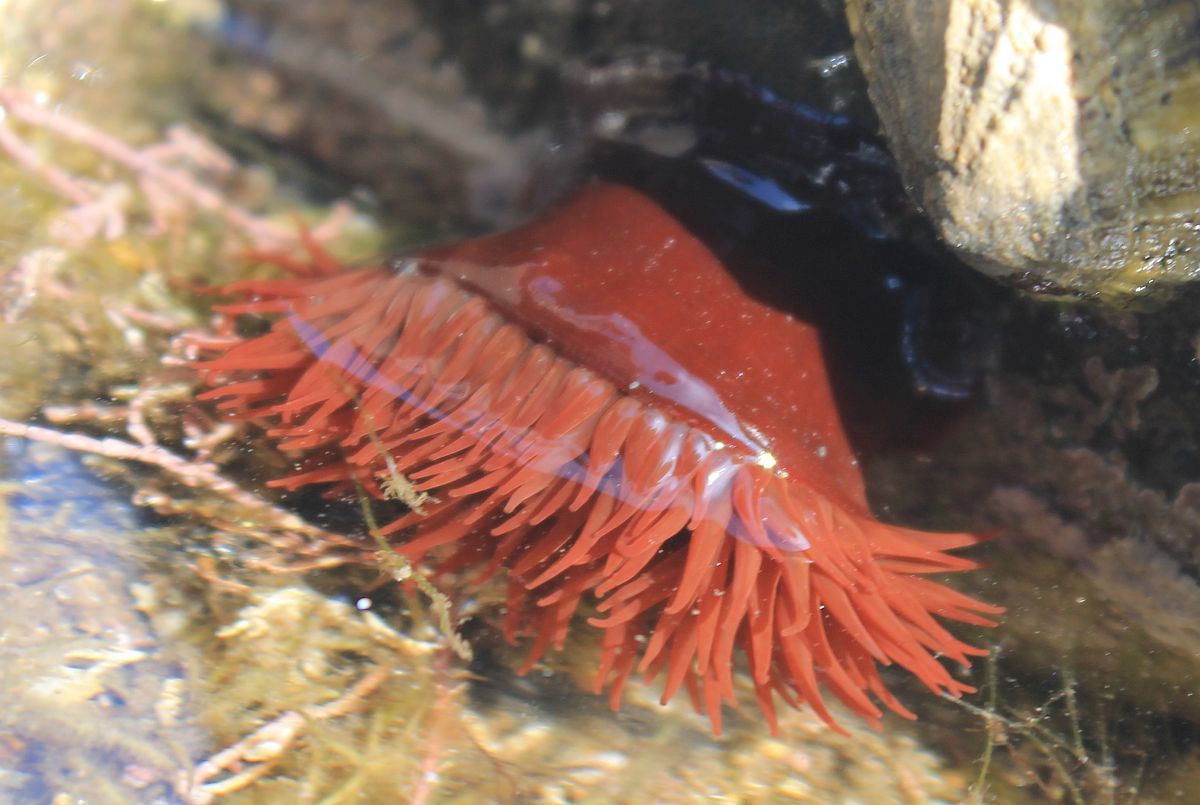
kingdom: Animalia
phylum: Cnidaria
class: Anthozoa
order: Actiniaria
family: Actiniidae
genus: Actinia
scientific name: Actinia equina
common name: Beadlet anemone
